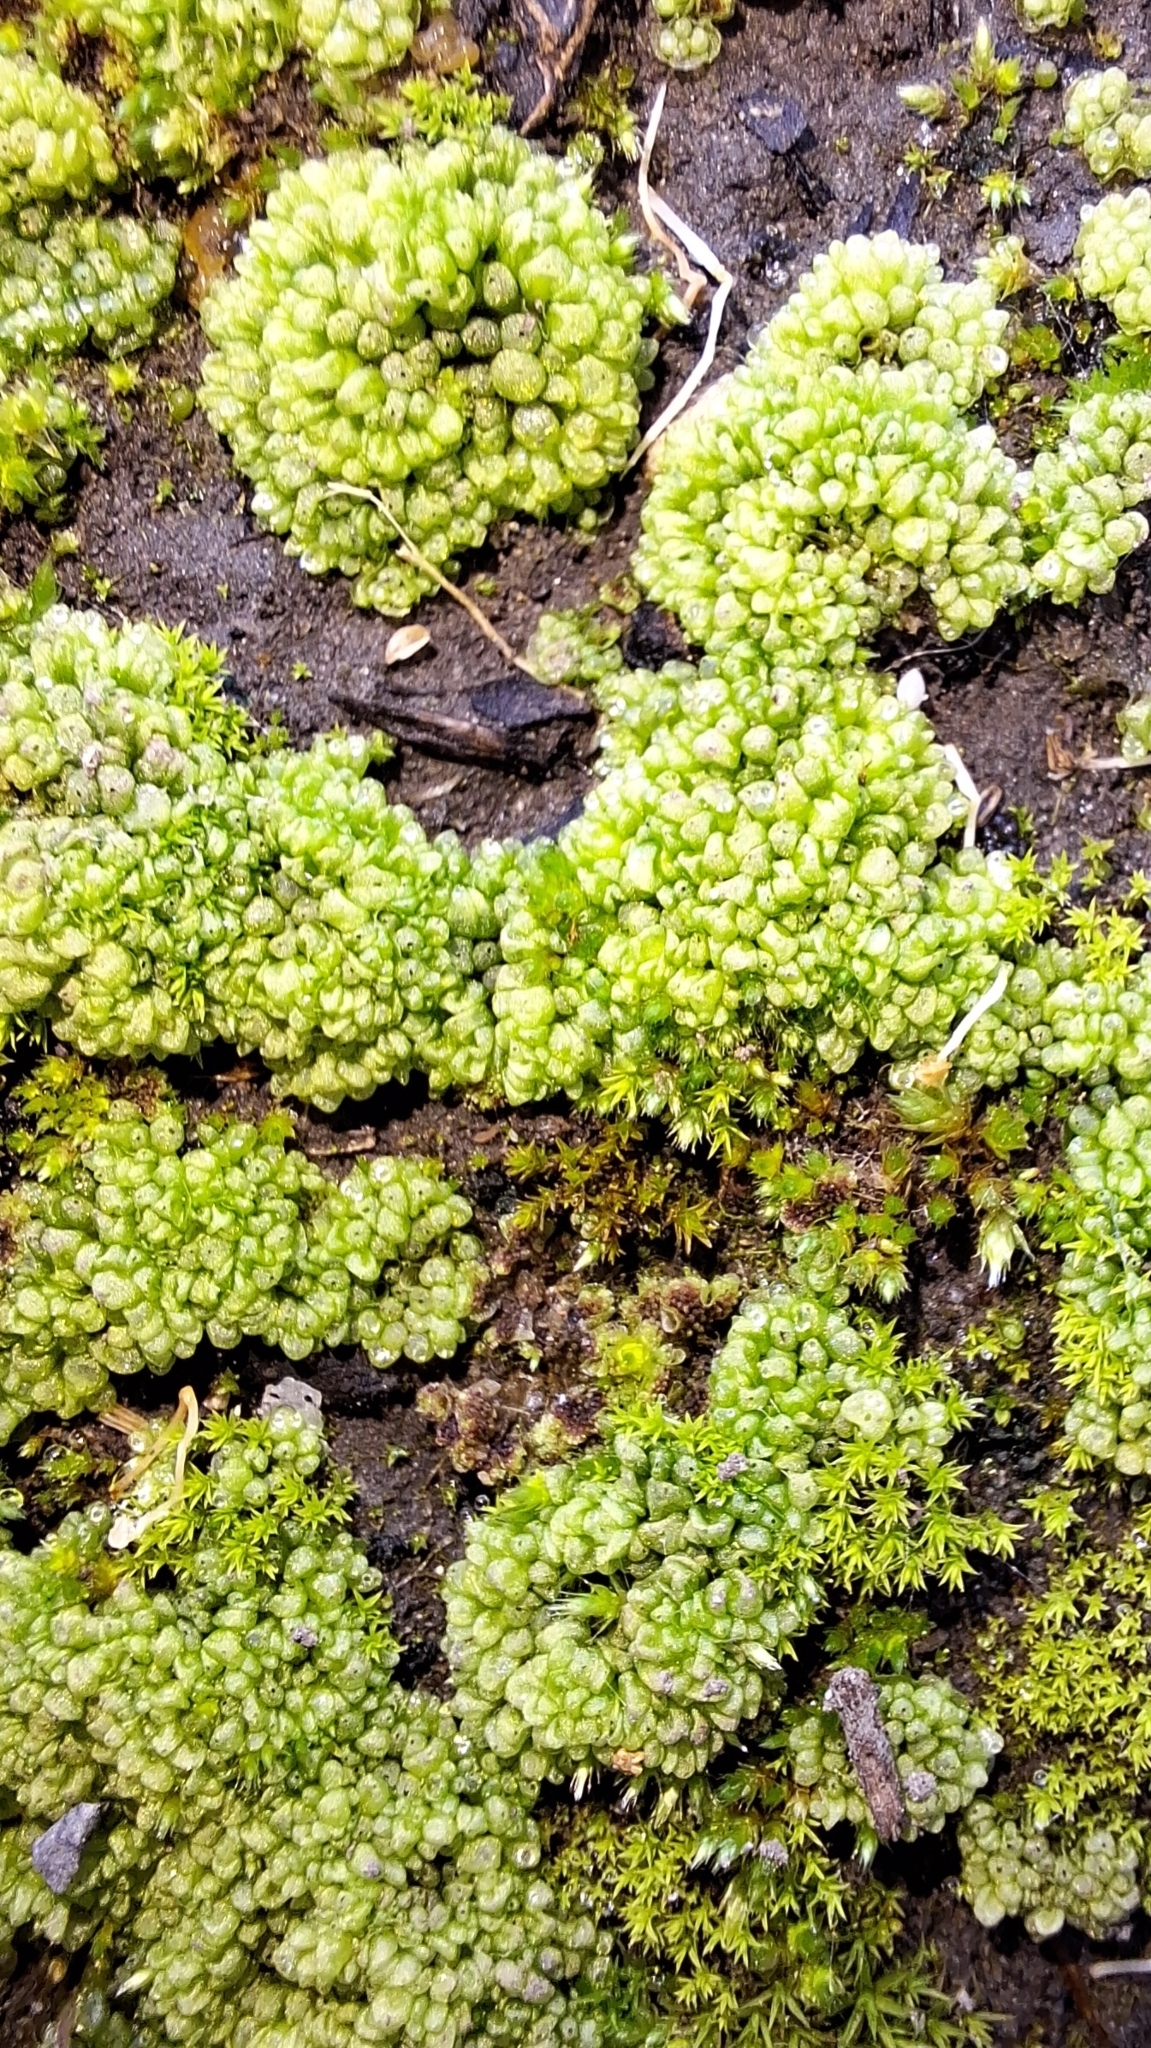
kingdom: Plantae
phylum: Marchantiophyta
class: Marchantiopsida
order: Sphaerocarpales
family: Sphaerocarpaceae
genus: Sphaerocarpos
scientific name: Sphaerocarpos texanus
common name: Texas balloonwort
